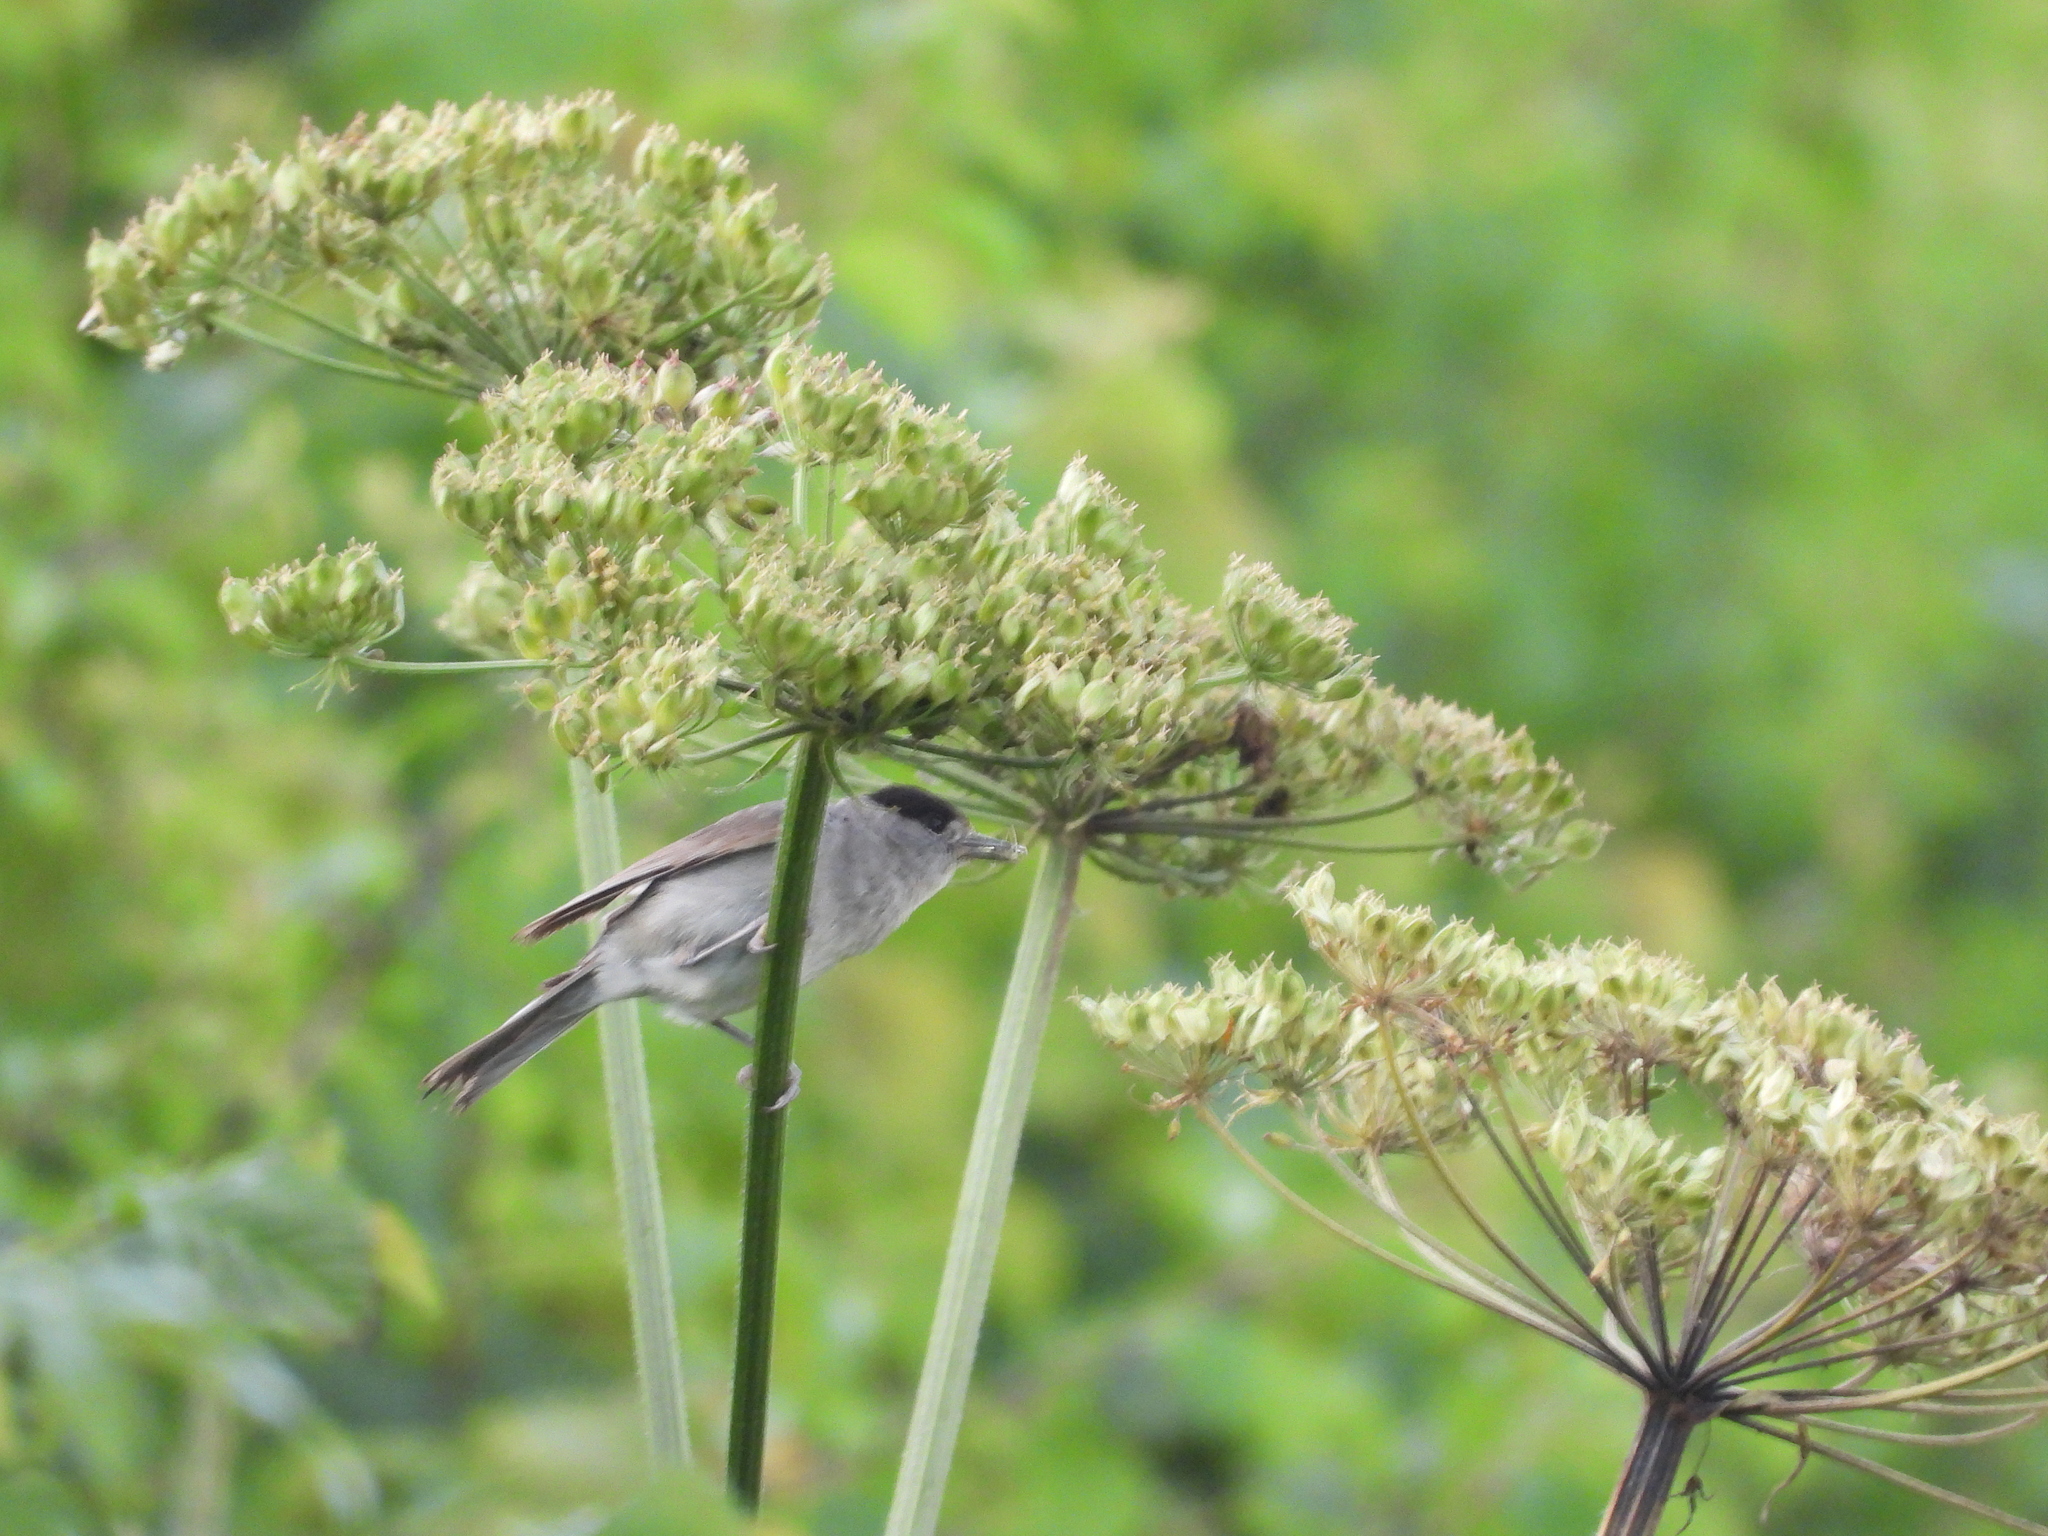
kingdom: Animalia
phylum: Chordata
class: Aves
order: Passeriformes
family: Sylviidae
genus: Sylvia
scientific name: Sylvia atricapilla
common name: Eurasian blackcap
